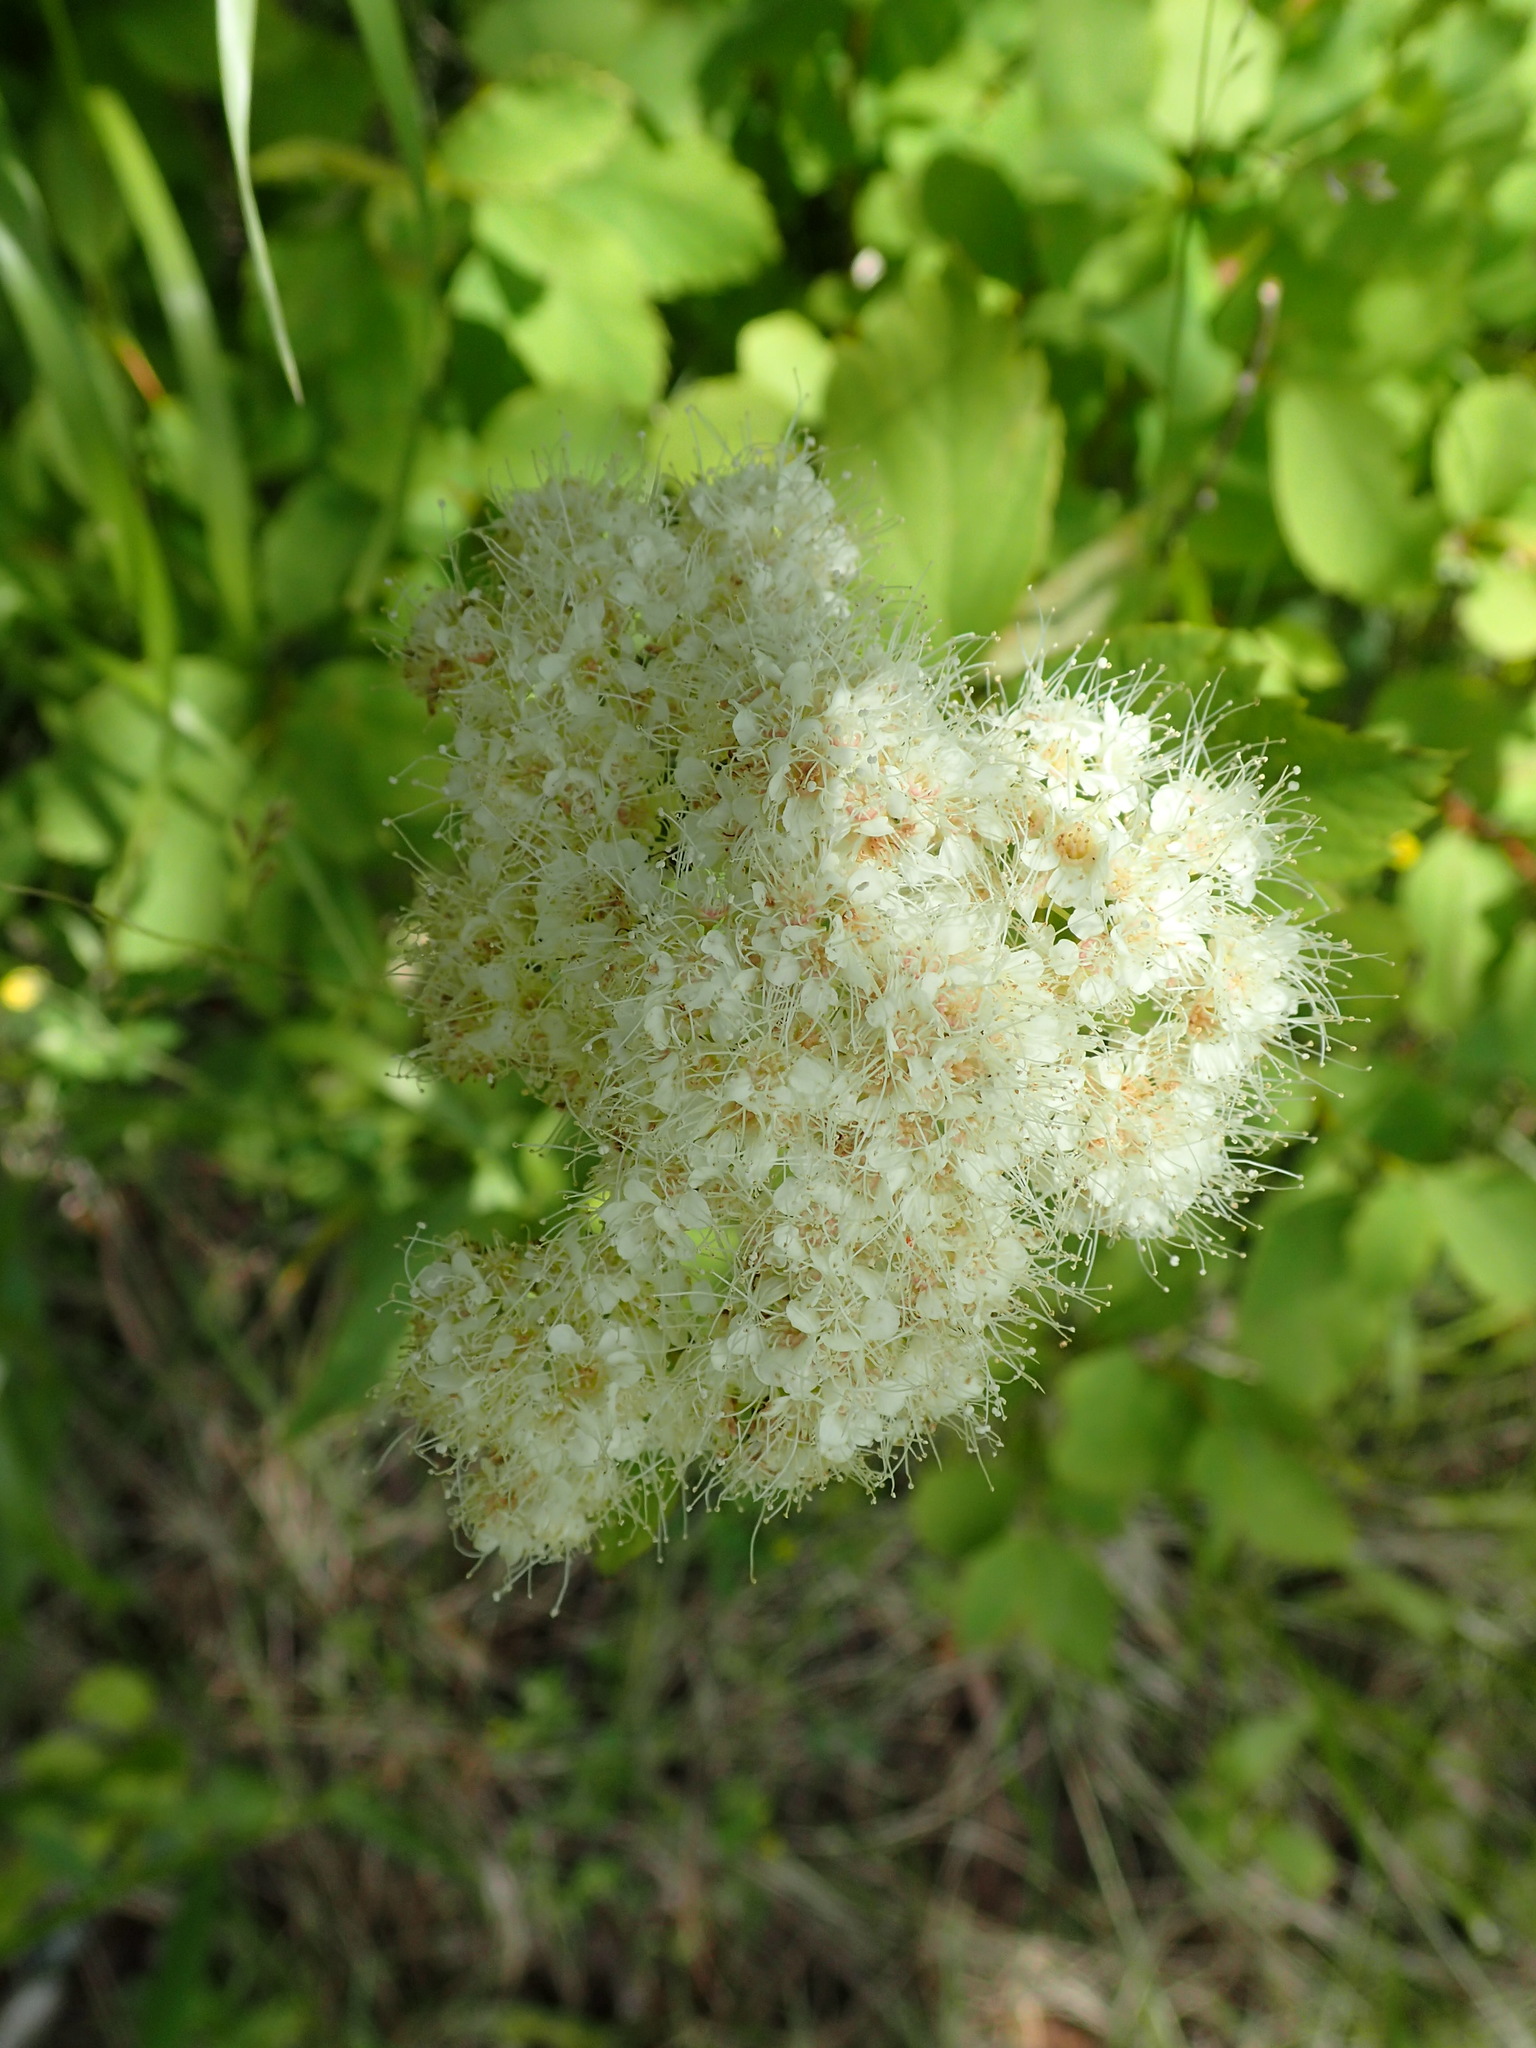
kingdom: Plantae
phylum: Tracheophyta
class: Magnoliopsida
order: Rosales
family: Rosaceae
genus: Spiraea
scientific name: Spiraea lucida
